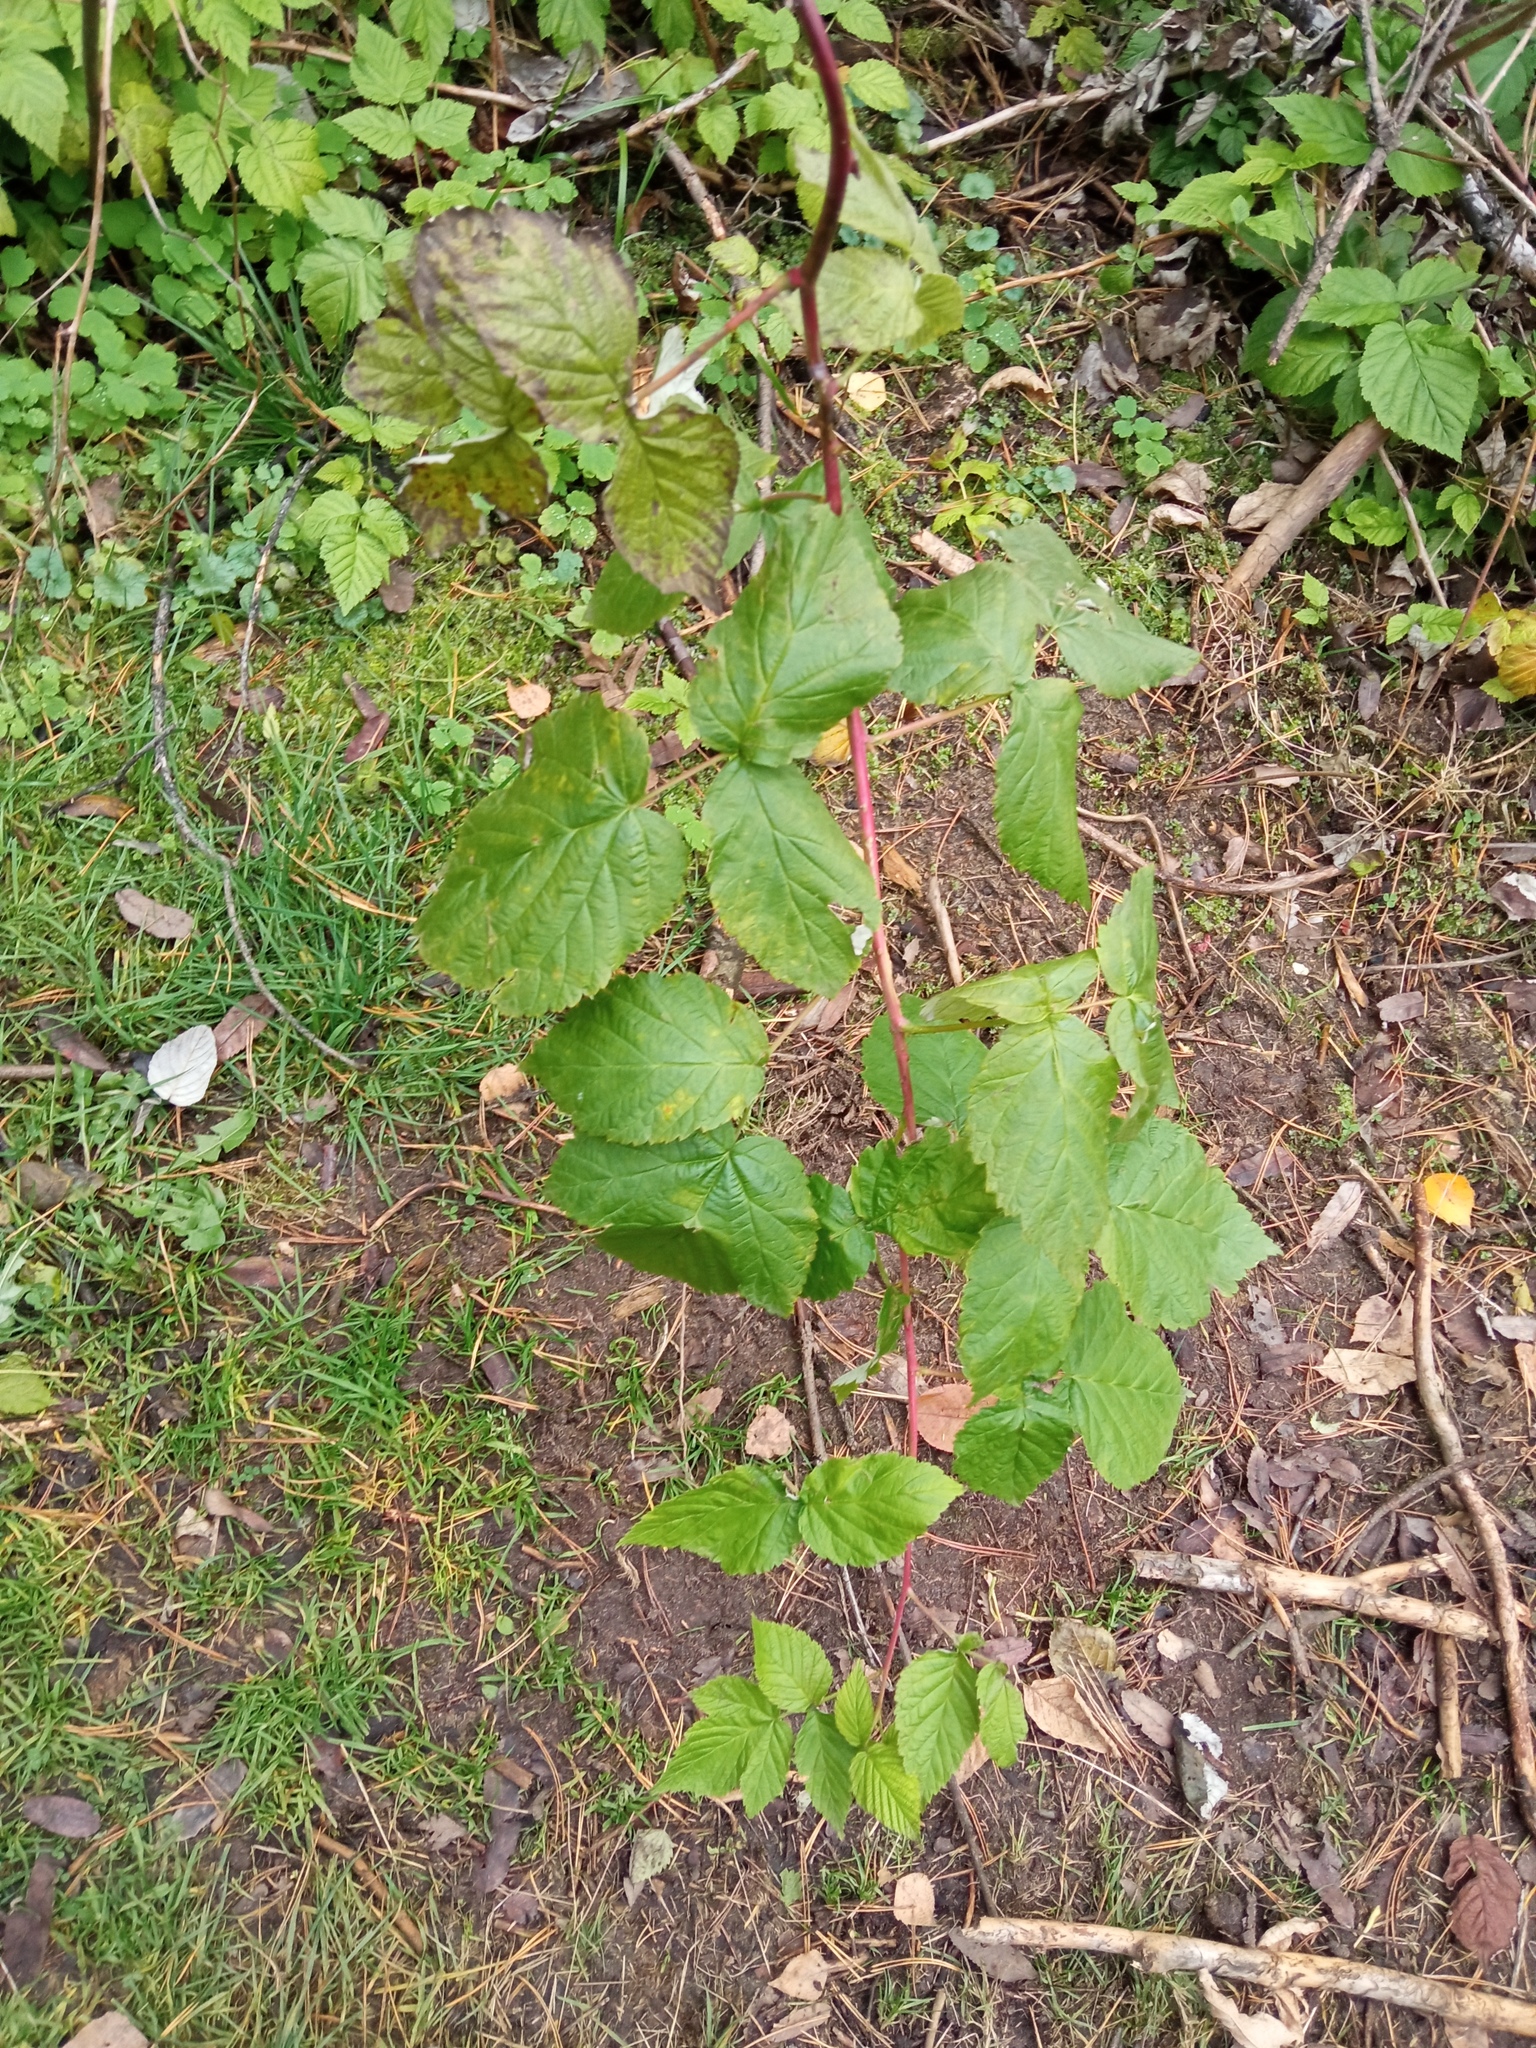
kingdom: Plantae
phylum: Tracheophyta
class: Magnoliopsida
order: Rosales
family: Rosaceae
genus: Rubus
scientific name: Rubus idaeus
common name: Raspberry
